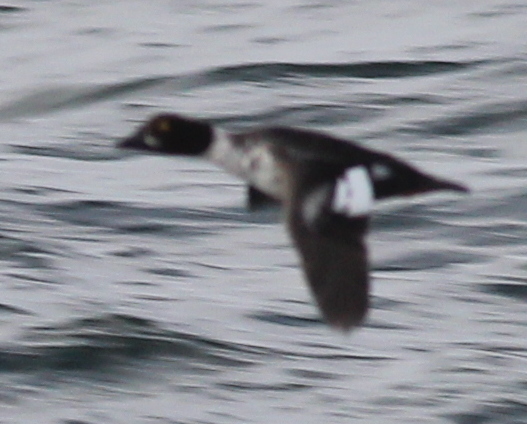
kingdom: Animalia
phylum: Chordata
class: Aves
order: Anseriformes
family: Anatidae
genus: Bucephala
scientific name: Bucephala clangula
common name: Common goldeneye
